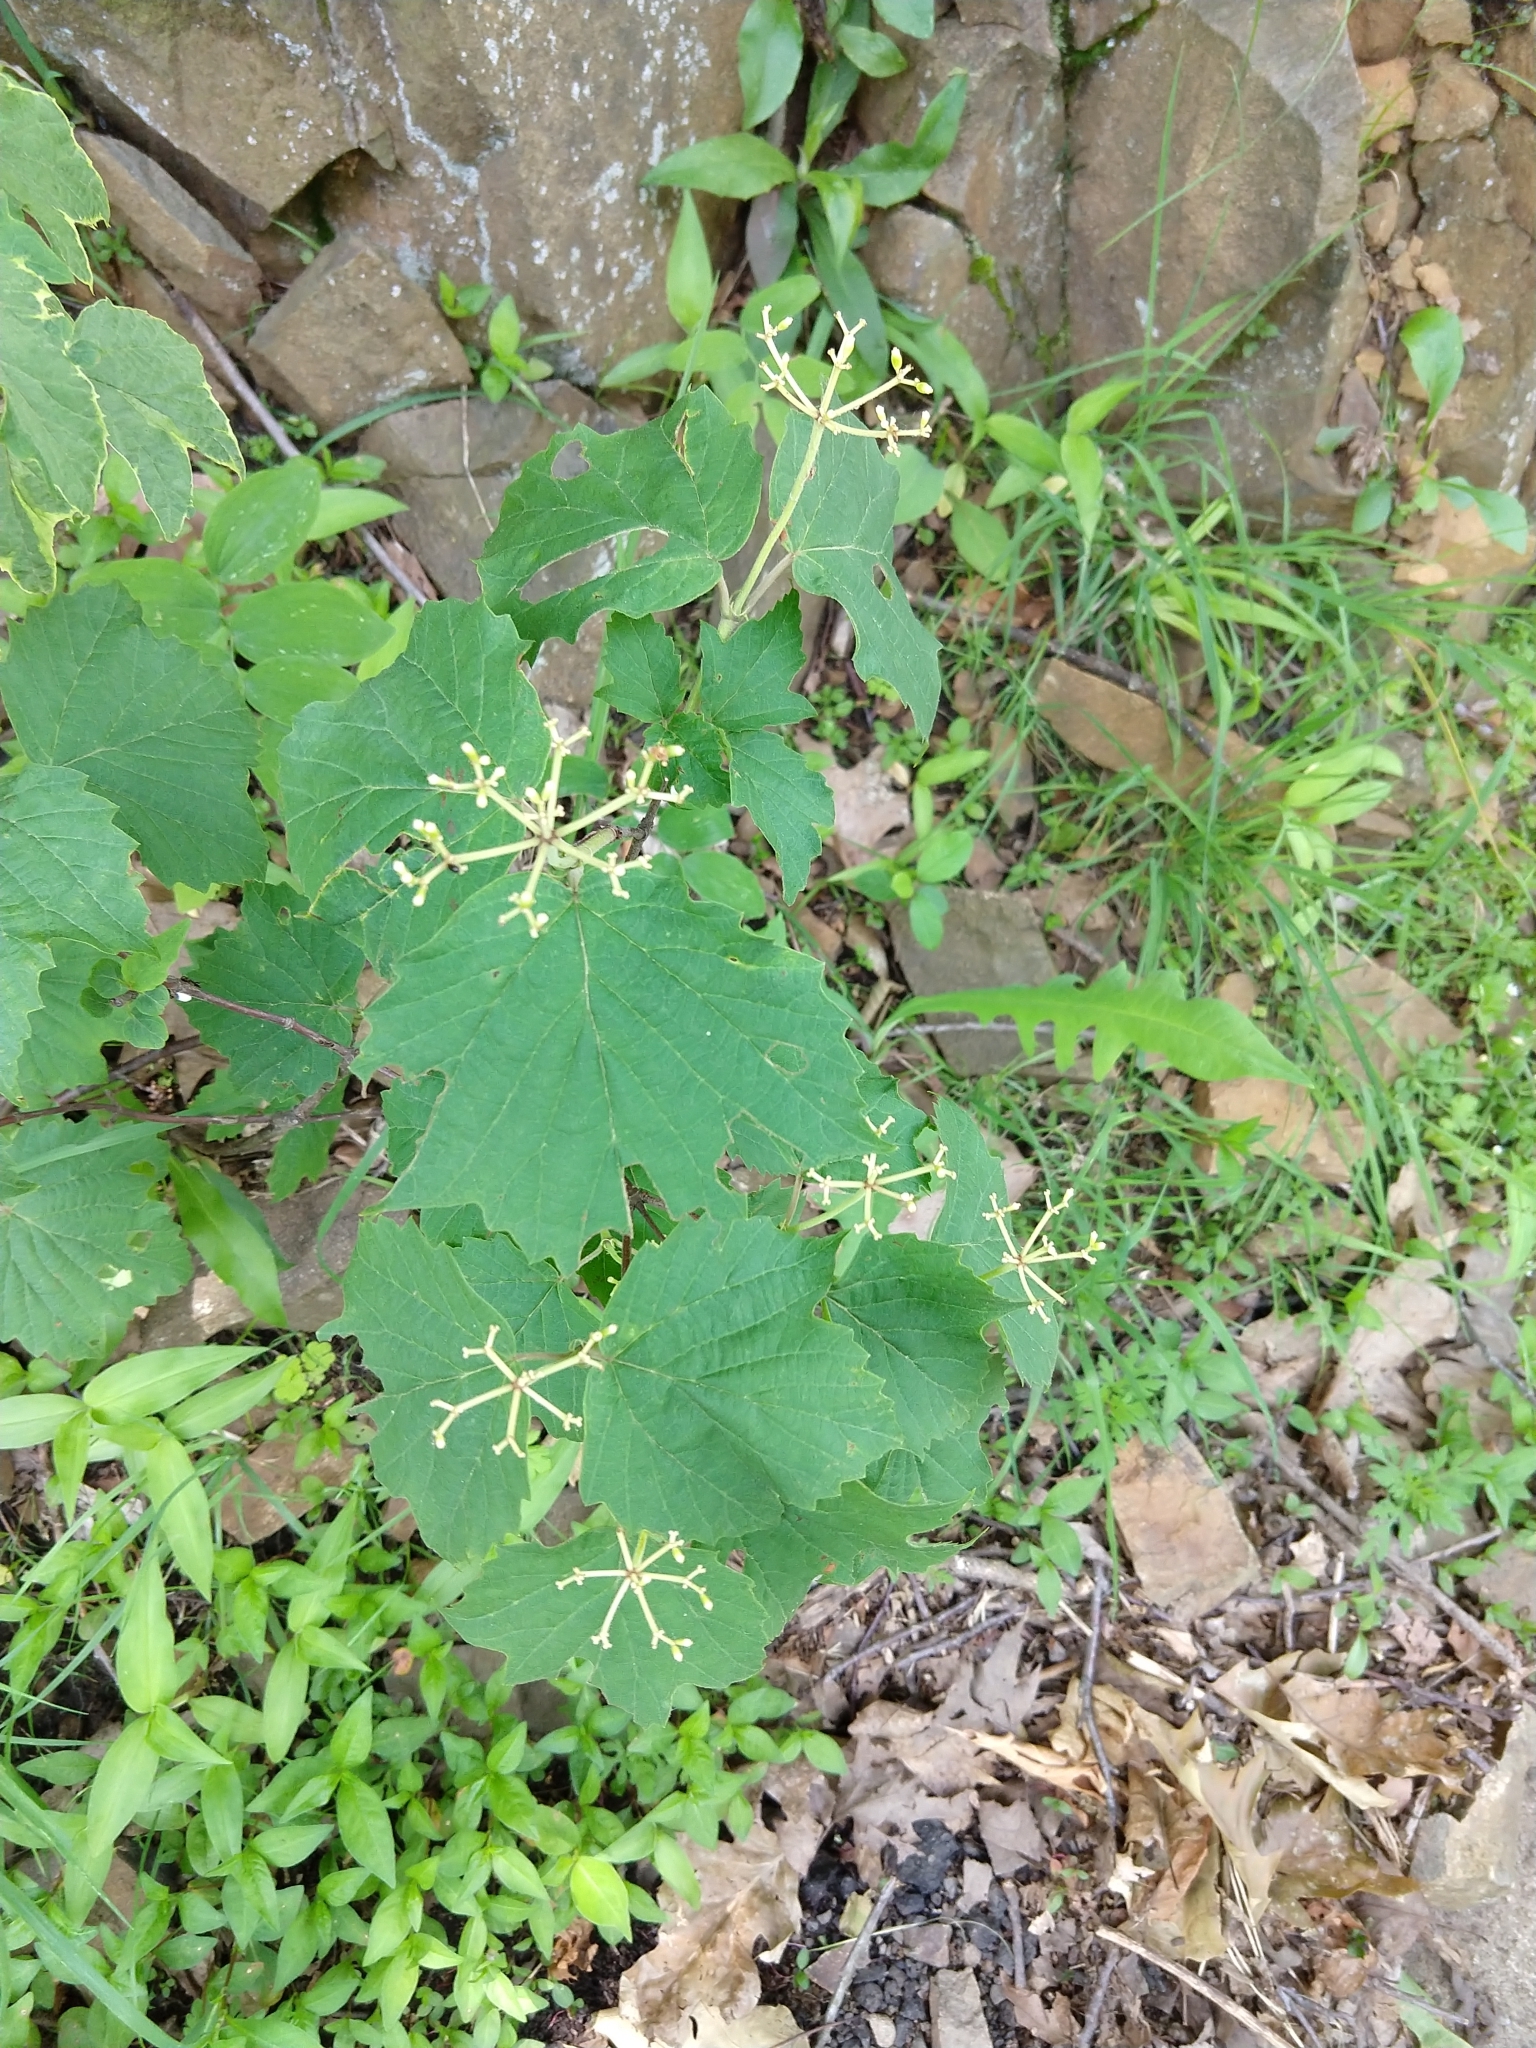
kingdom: Plantae
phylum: Tracheophyta
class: Magnoliopsida
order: Dipsacales
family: Viburnaceae
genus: Viburnum
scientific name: Viburnum acerifolium
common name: Dockmackie
